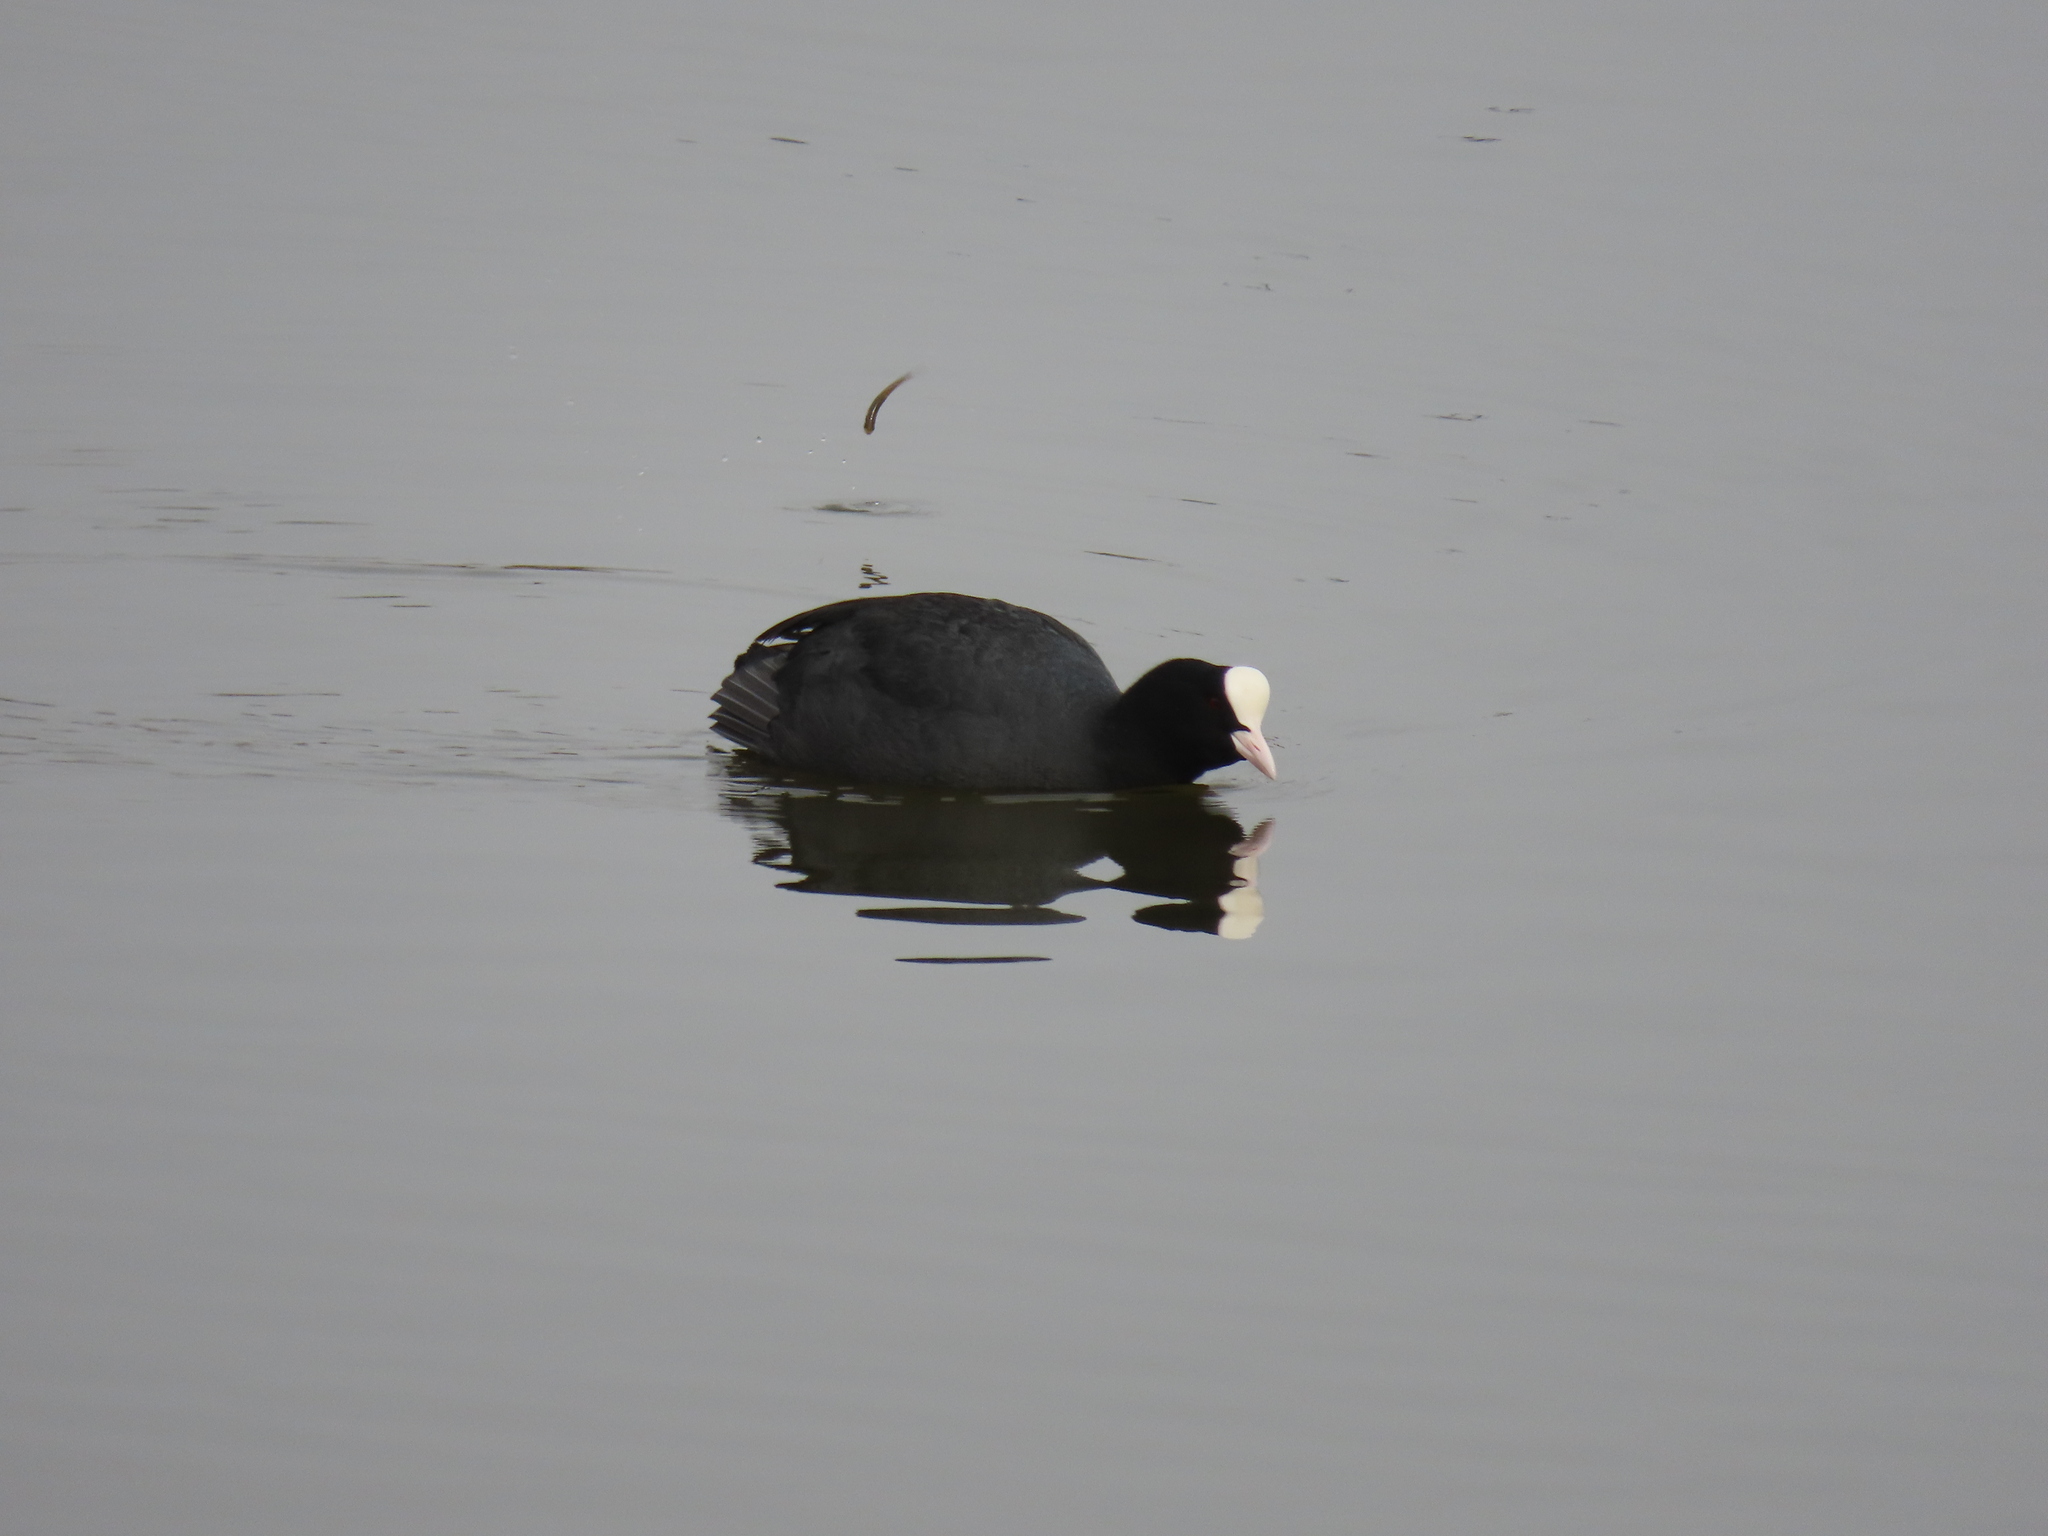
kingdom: Animalia
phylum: Chordata
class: Aves
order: Gruiformes
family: Rallidae
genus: Fulica
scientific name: Fulica atra
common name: Eurasian coot
